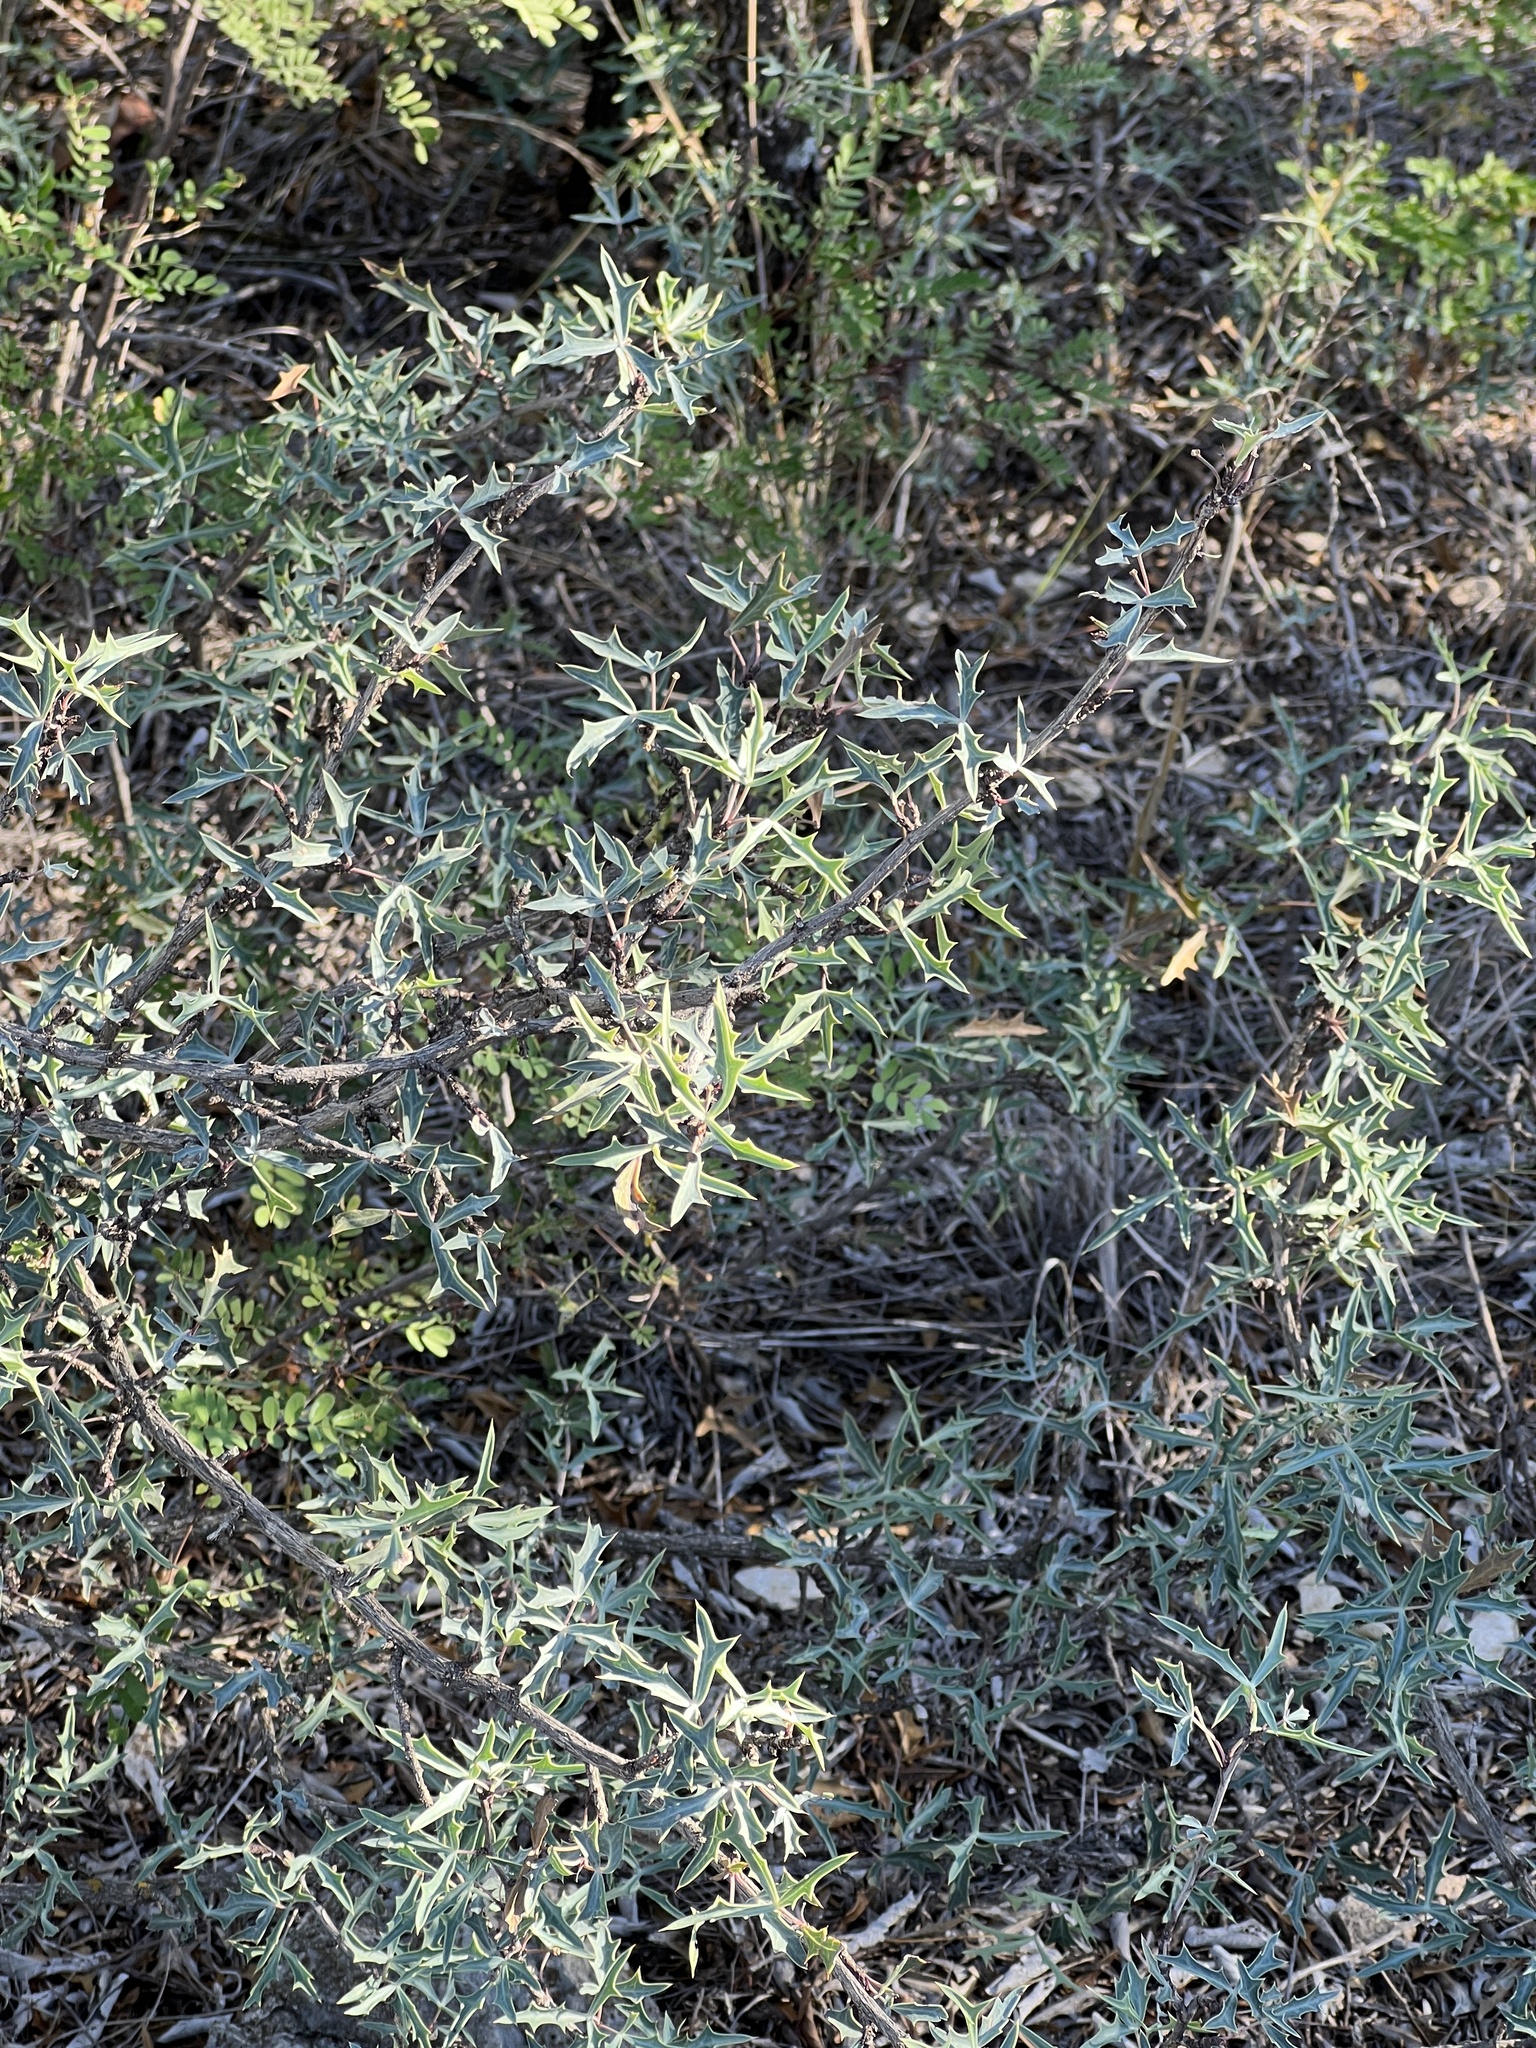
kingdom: Plantae
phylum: Tracheophyta
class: Magnoliopsida
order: Ranunculales
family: Berberidaceae
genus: Alloberberis
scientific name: Alloberberis trifoliolata
